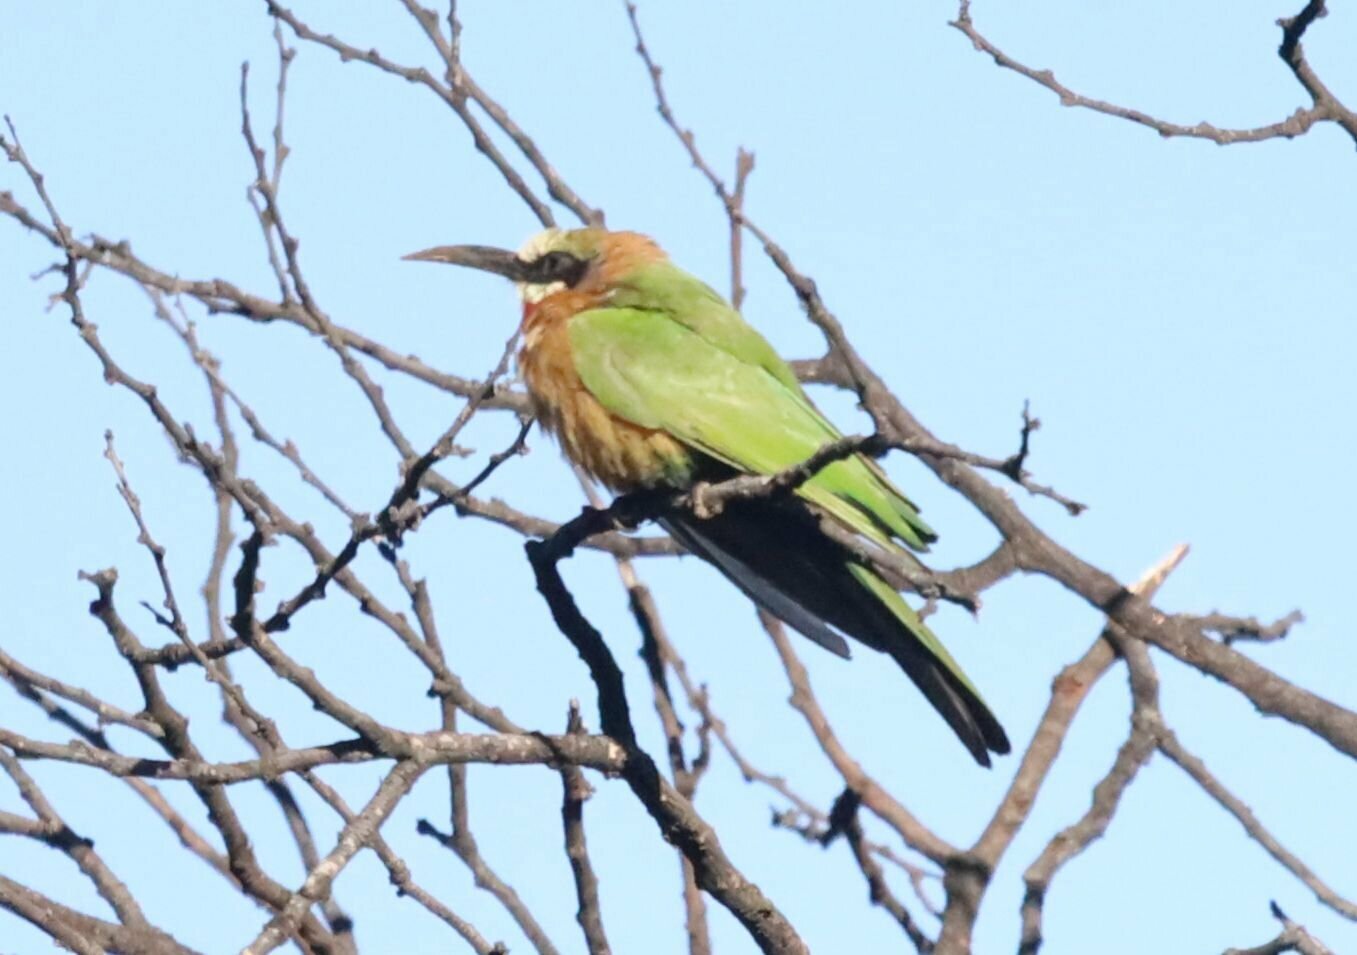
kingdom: Animalia
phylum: Chordata
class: Aves
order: Coraciiformes
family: Meropidae
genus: Merops
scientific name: Merops bullockoides
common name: White-fronted bee-eater
